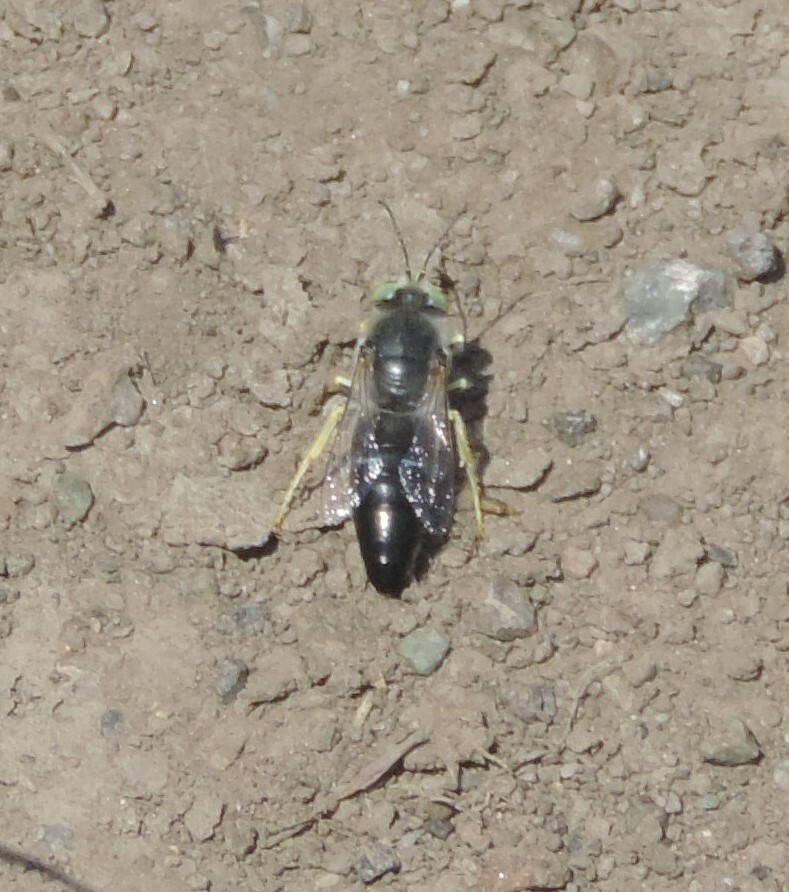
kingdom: Animalia
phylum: Arthropoda
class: Insecta
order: Hymenoptera
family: Crabronidae
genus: Bembix
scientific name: Bembix amoena
